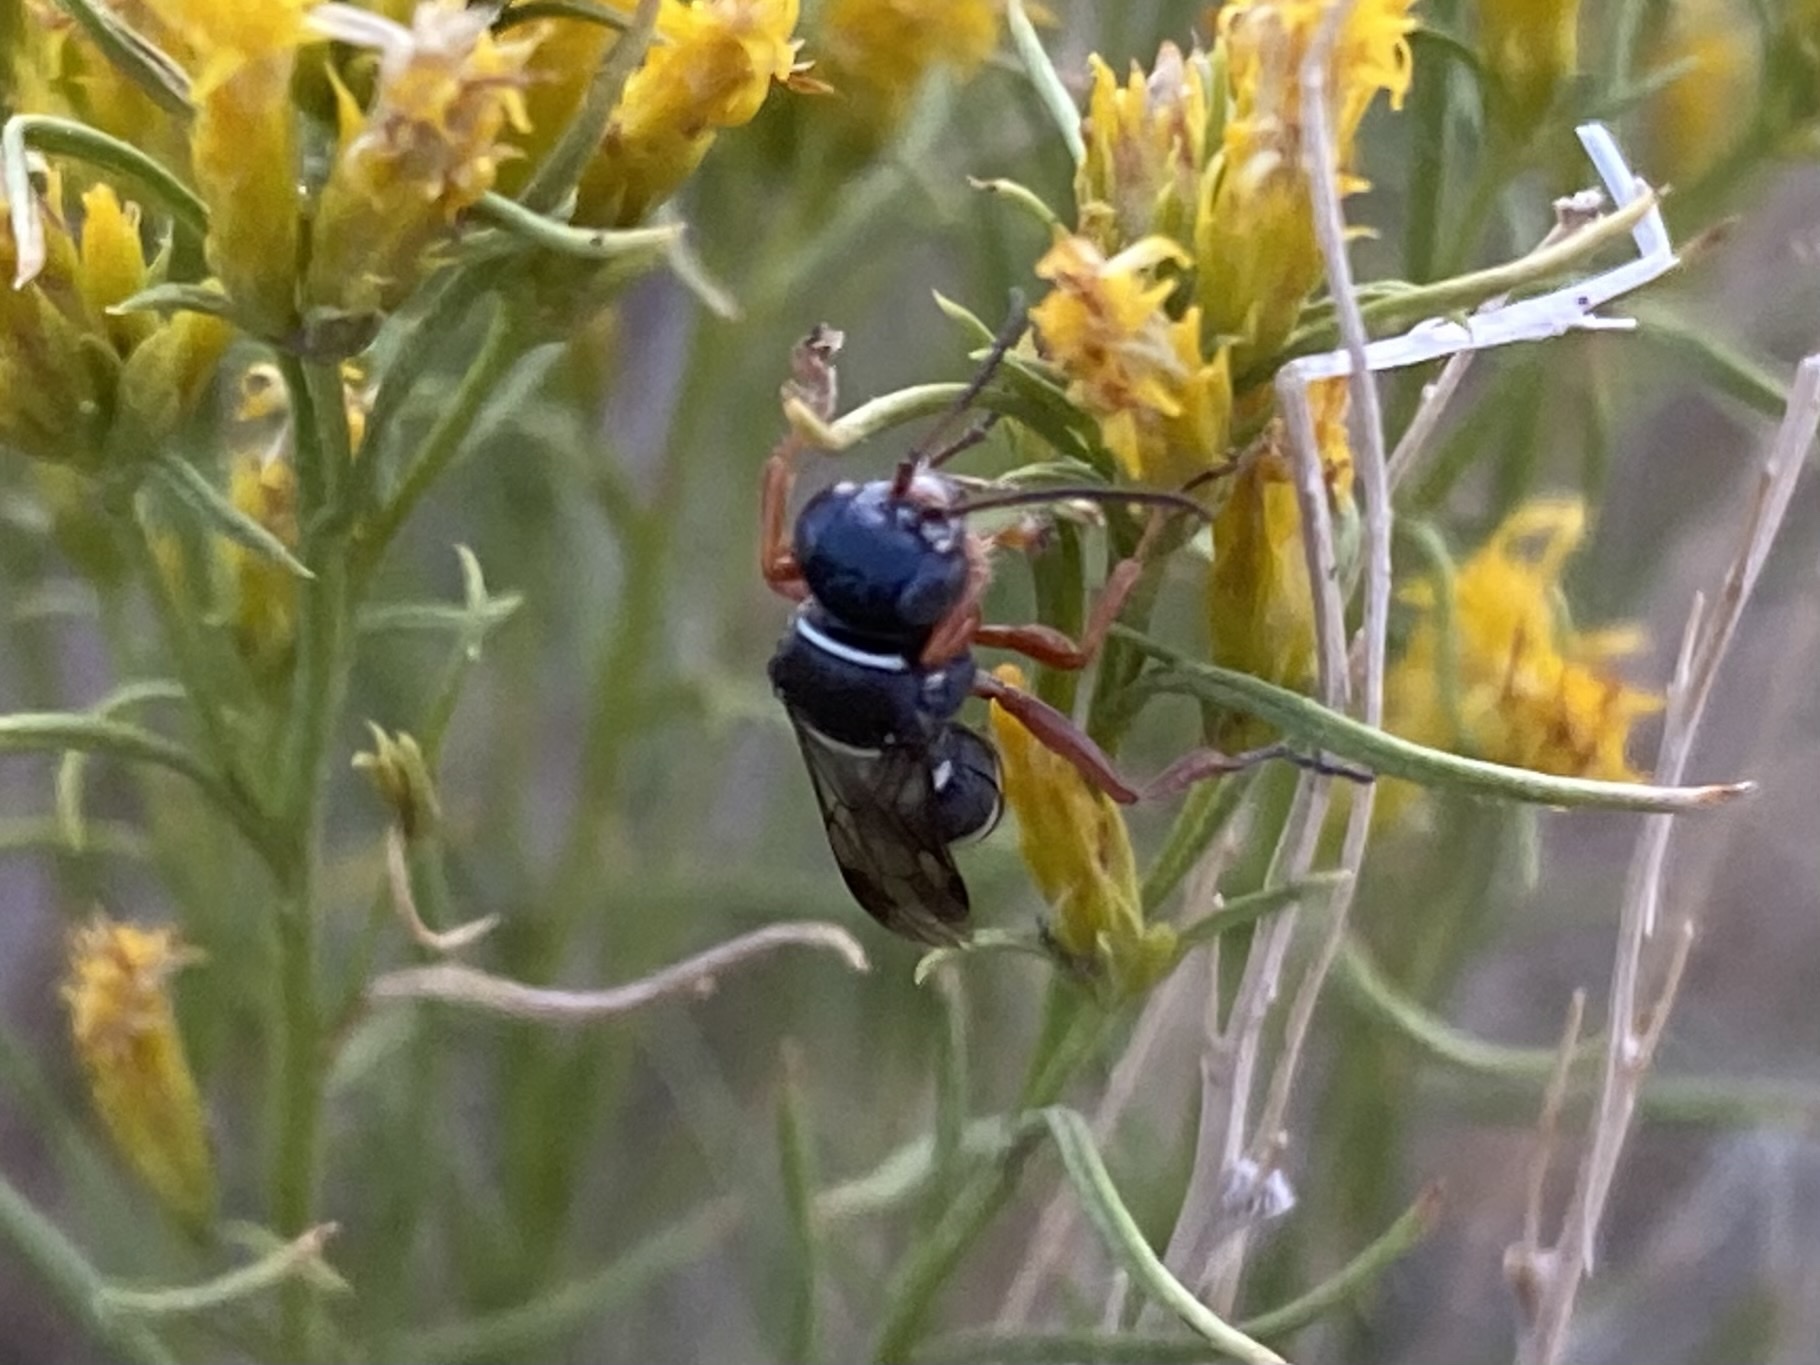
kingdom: Animalia
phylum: Arthropoda
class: Insecta
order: Hymenoptera
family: Crabronidae
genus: Gorytes
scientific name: Gorytes
